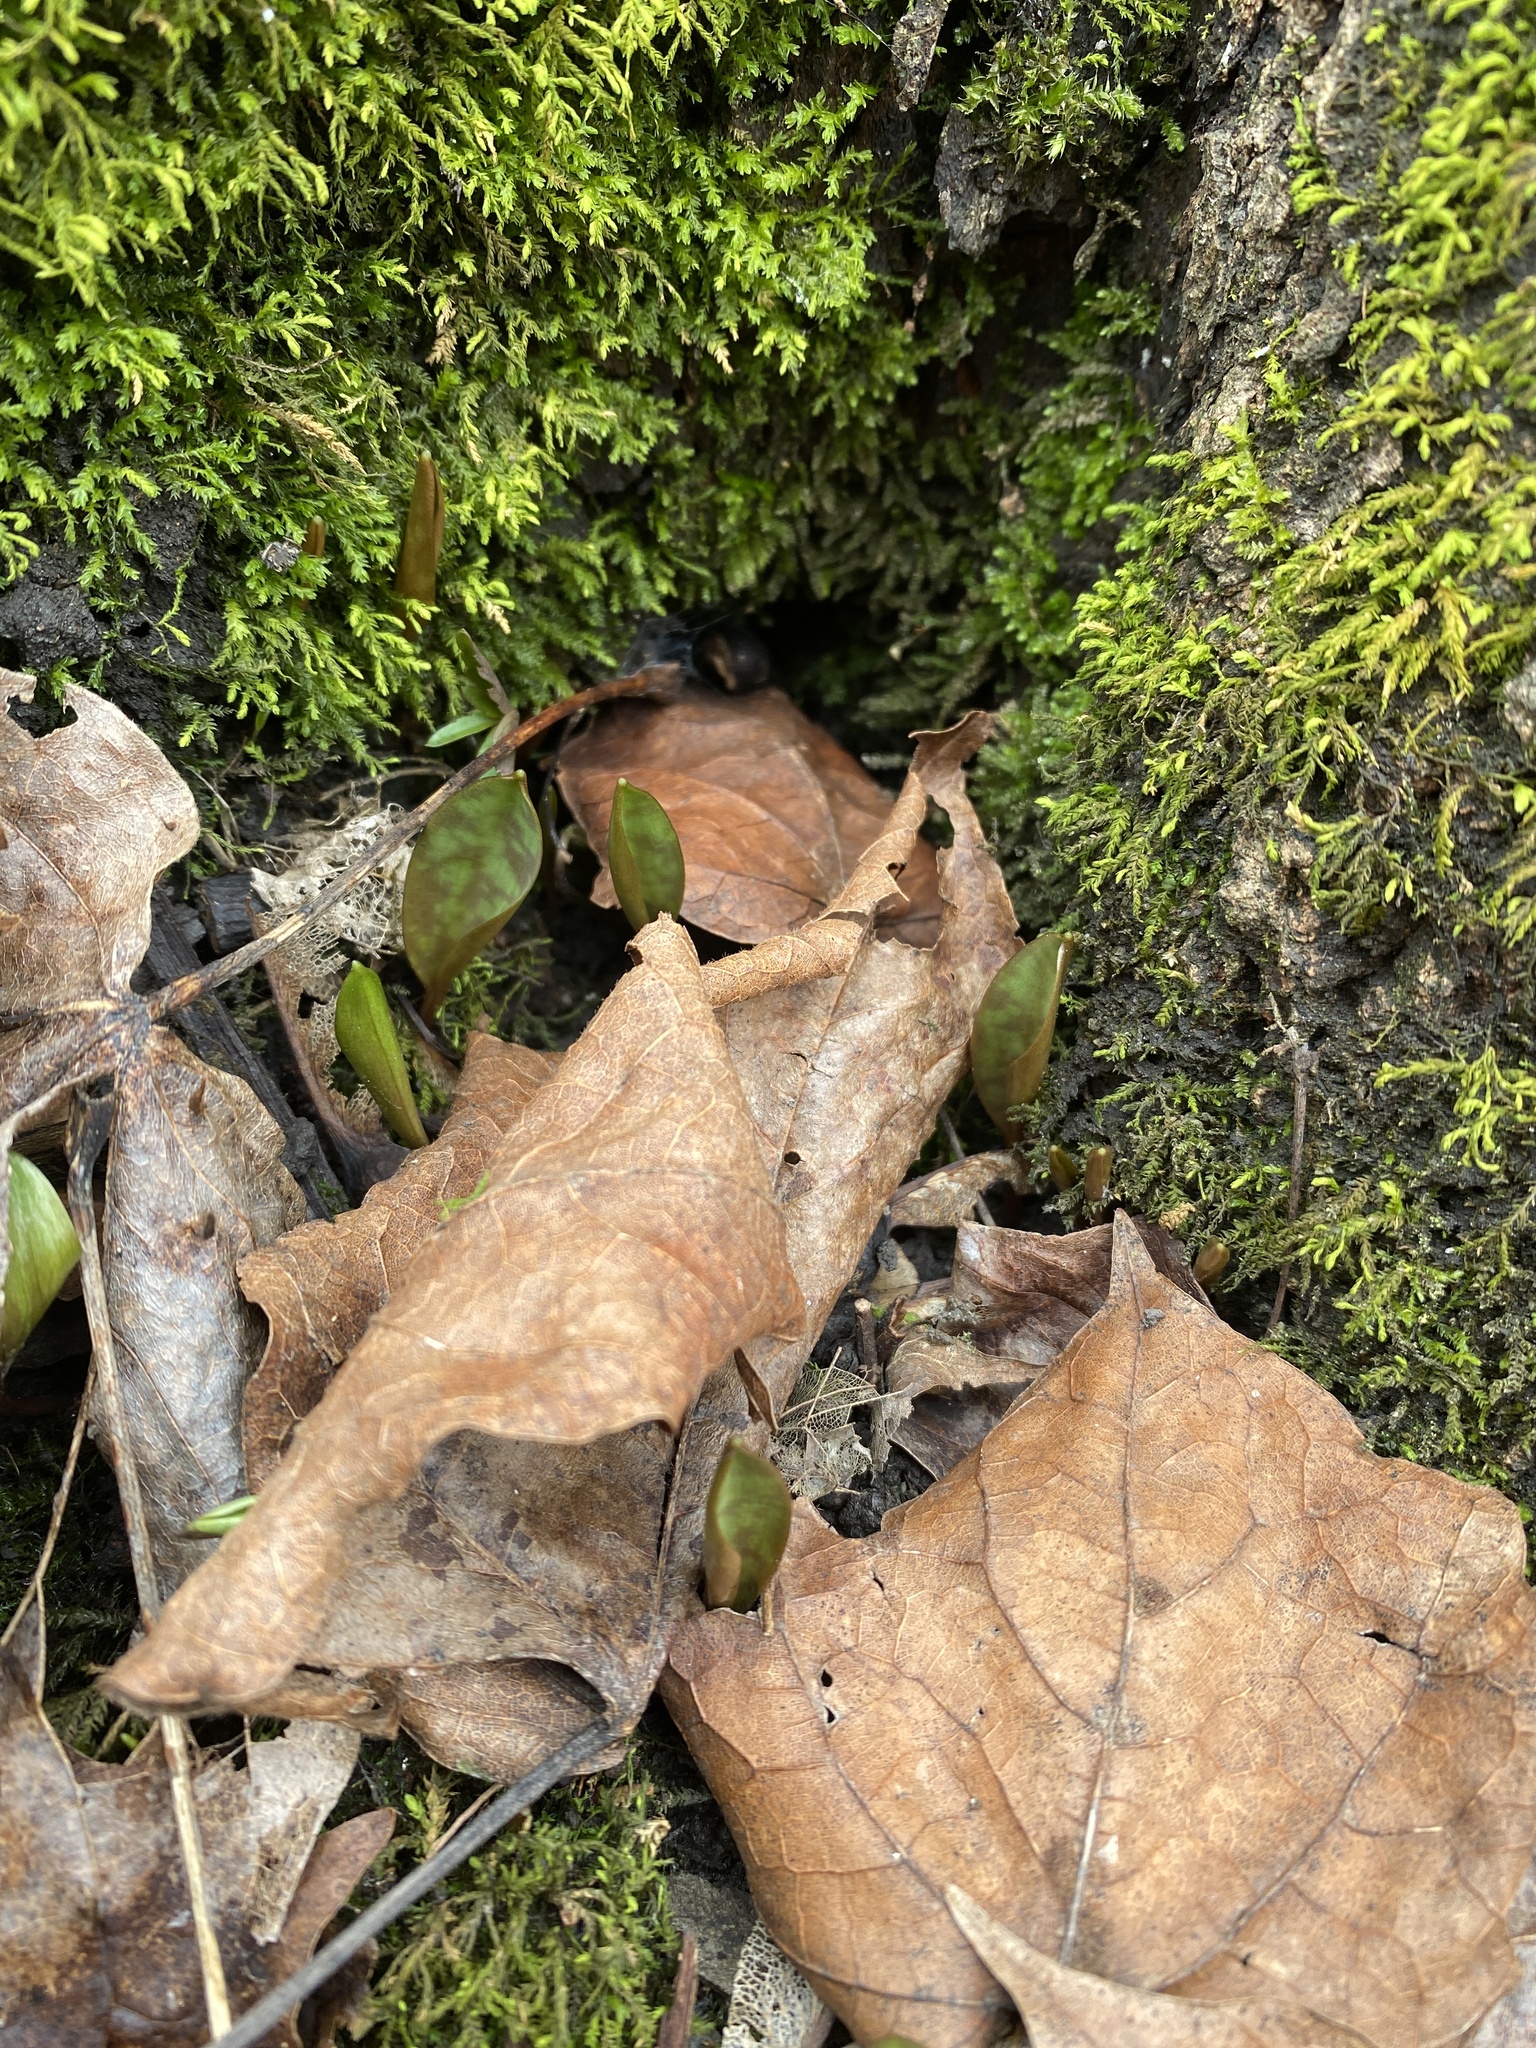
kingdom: Plantae
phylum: Tracheophyta
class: Liliopsida
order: Liliales
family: Liliaceae
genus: Erythronium
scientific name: Erythronium americanum
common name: Yellow adder's-tongue
